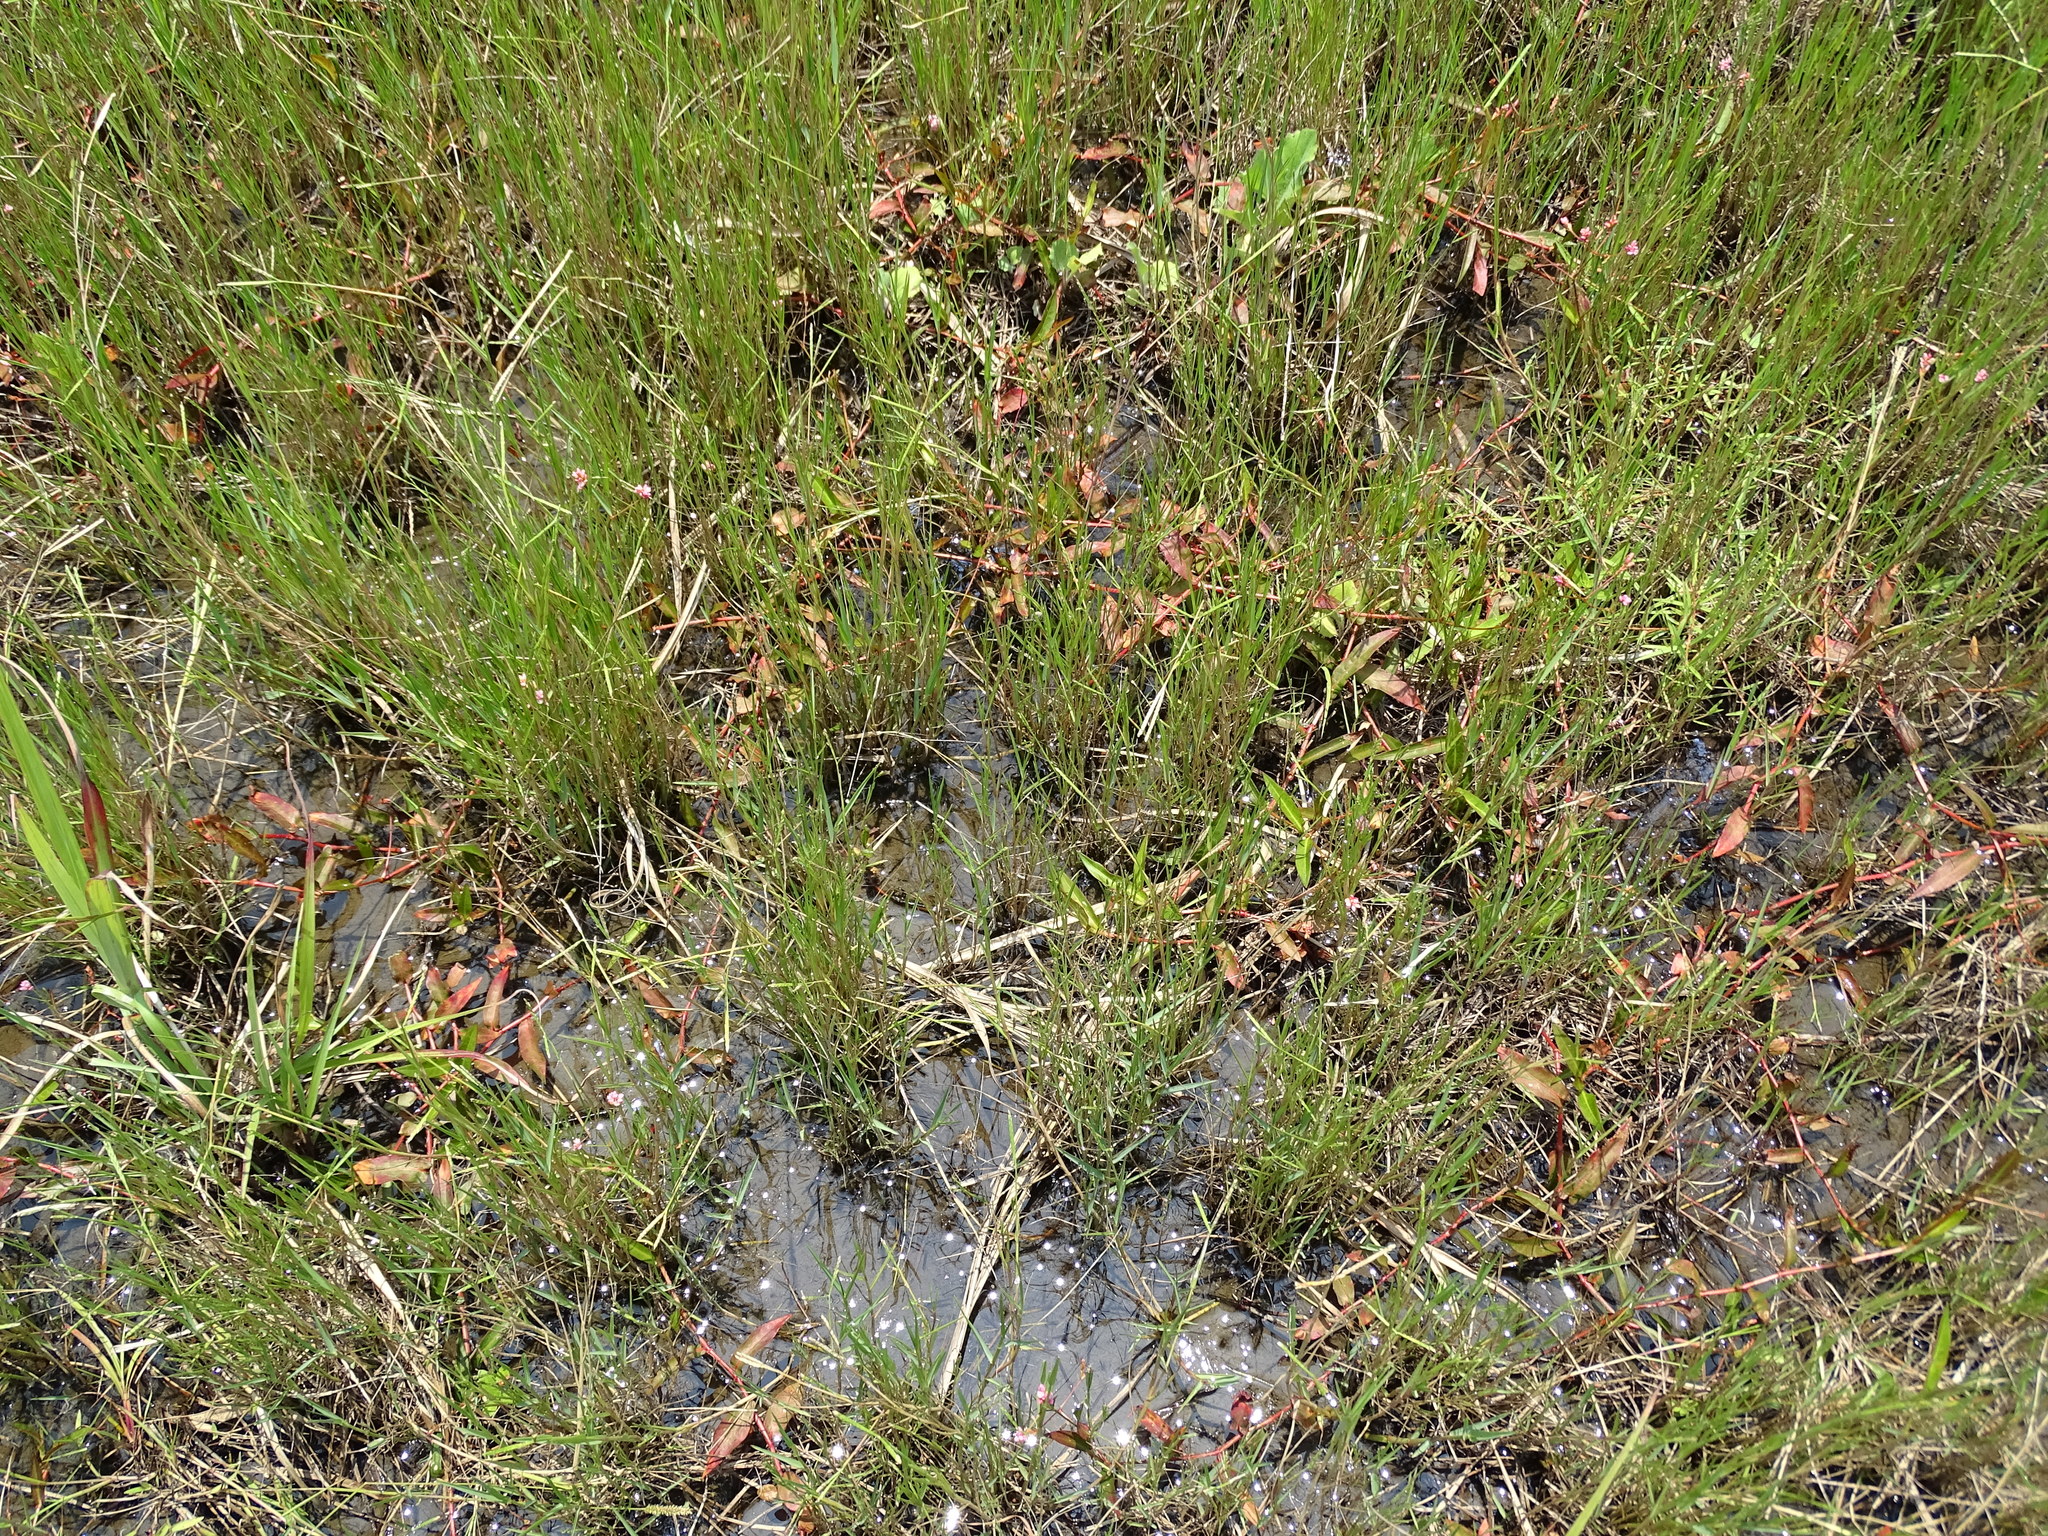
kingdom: Plantae
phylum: Tracheophyta
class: Magnoliopsida
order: Caryophyllales
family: Polygonaceae
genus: Persicaria
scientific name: Persicaria dichotoma
